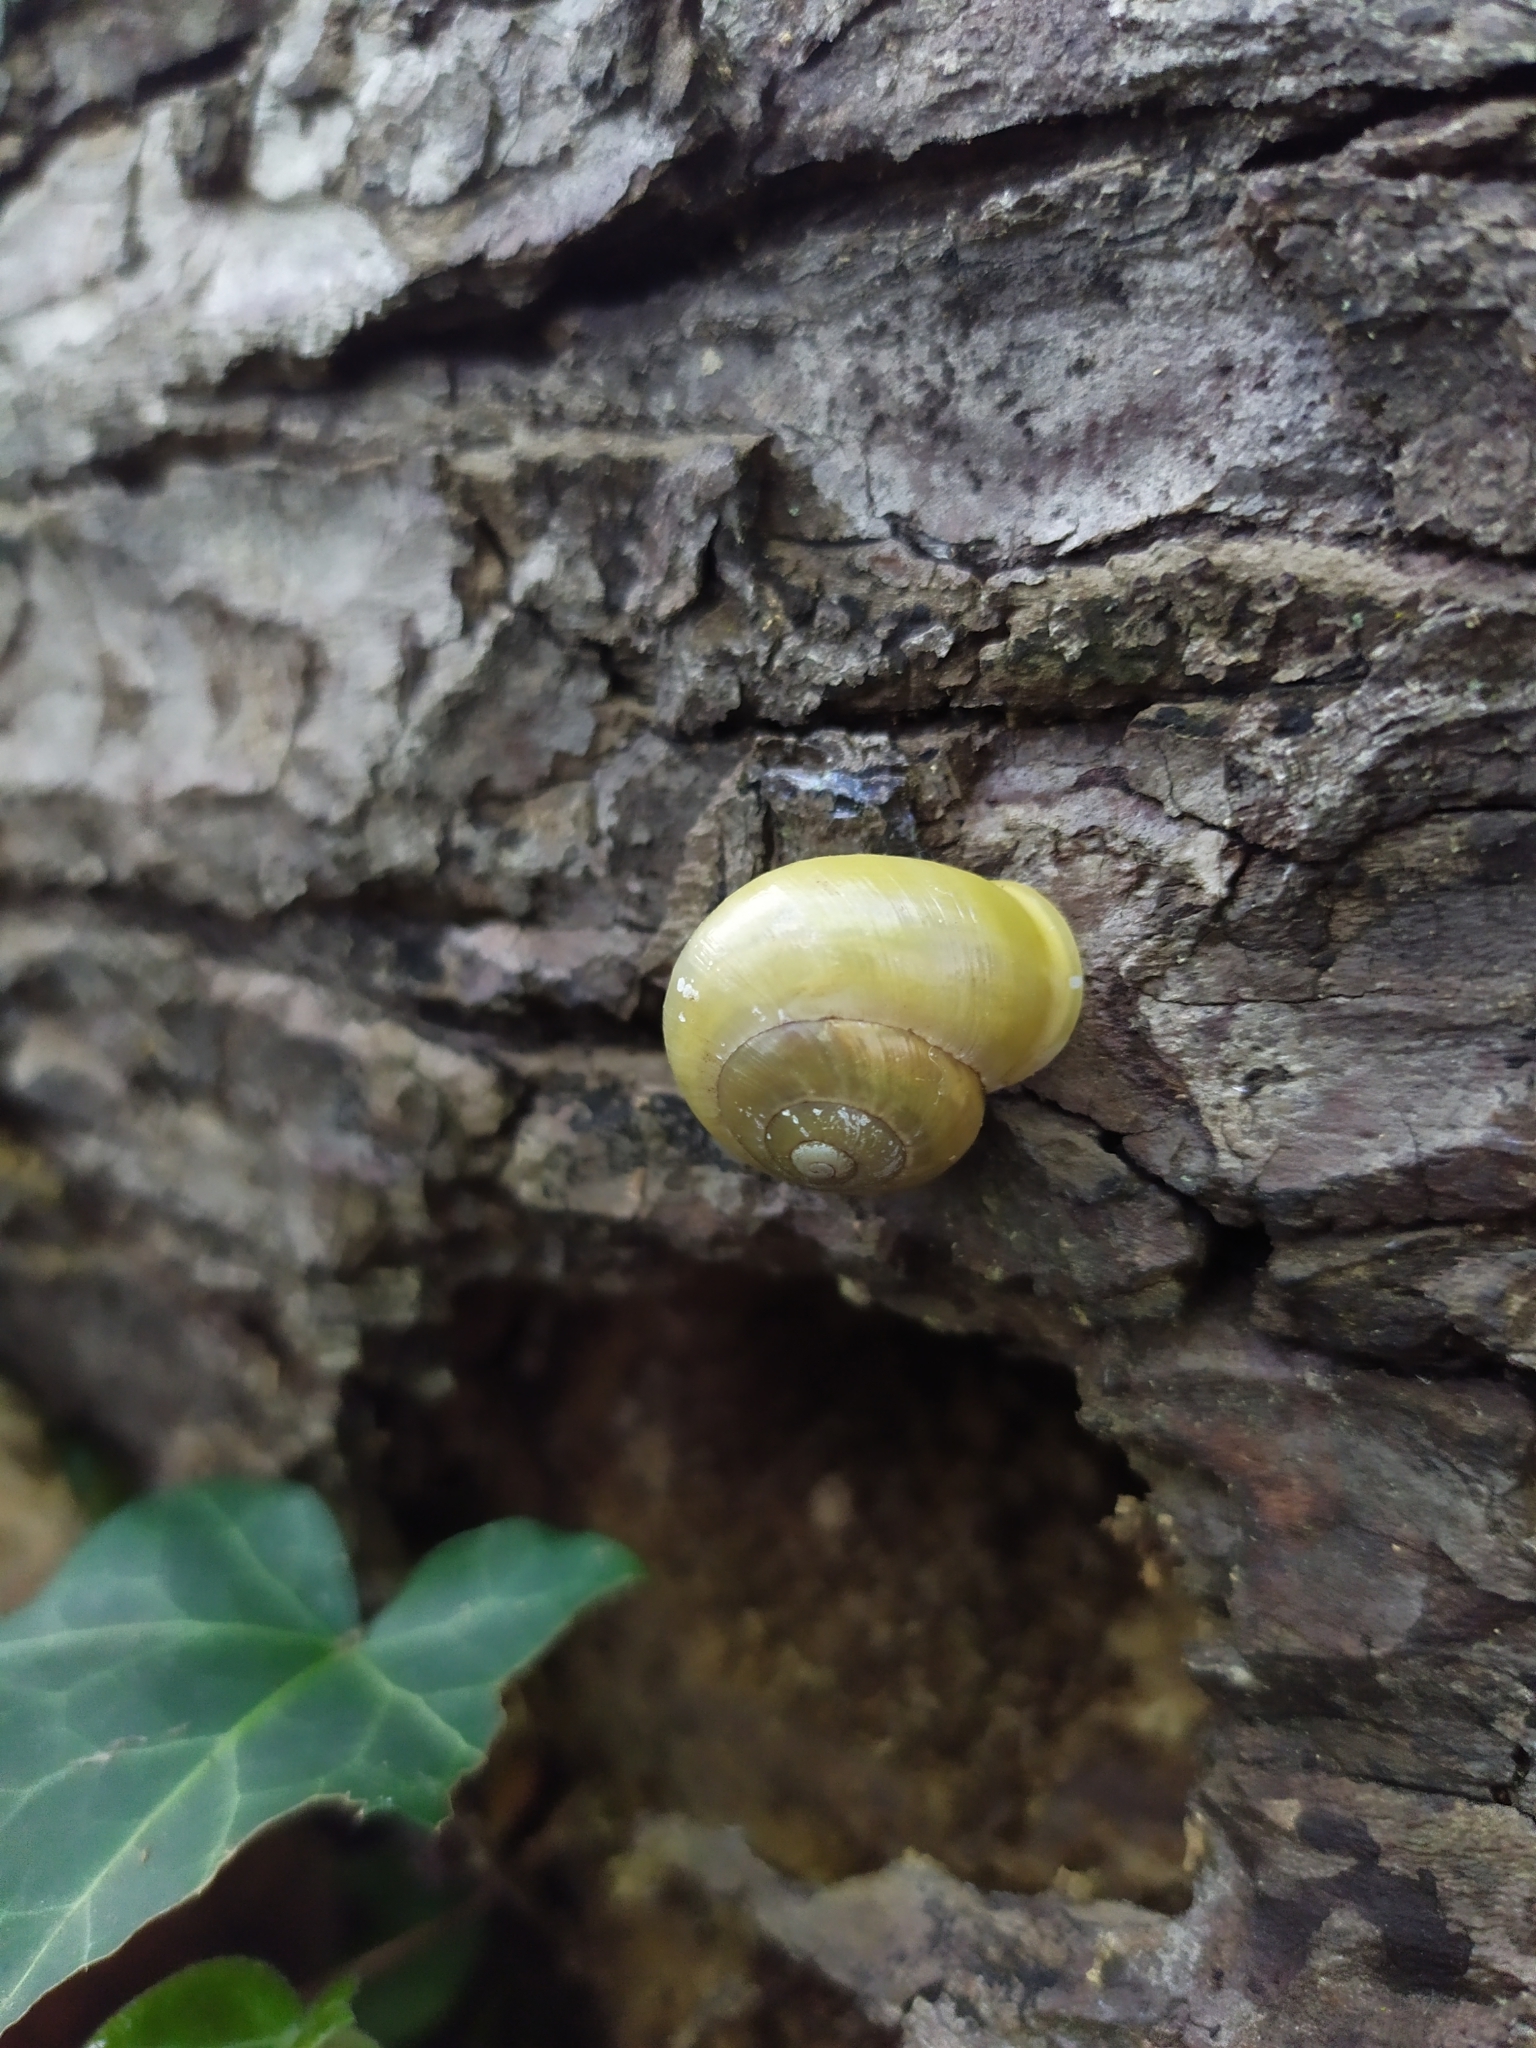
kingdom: Animalia
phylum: Mollusca
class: Gastropoda
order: Stylommatophora
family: Helicidae
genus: Cepaea
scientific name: Cepaea hortensis
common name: White-lip gardensnail
